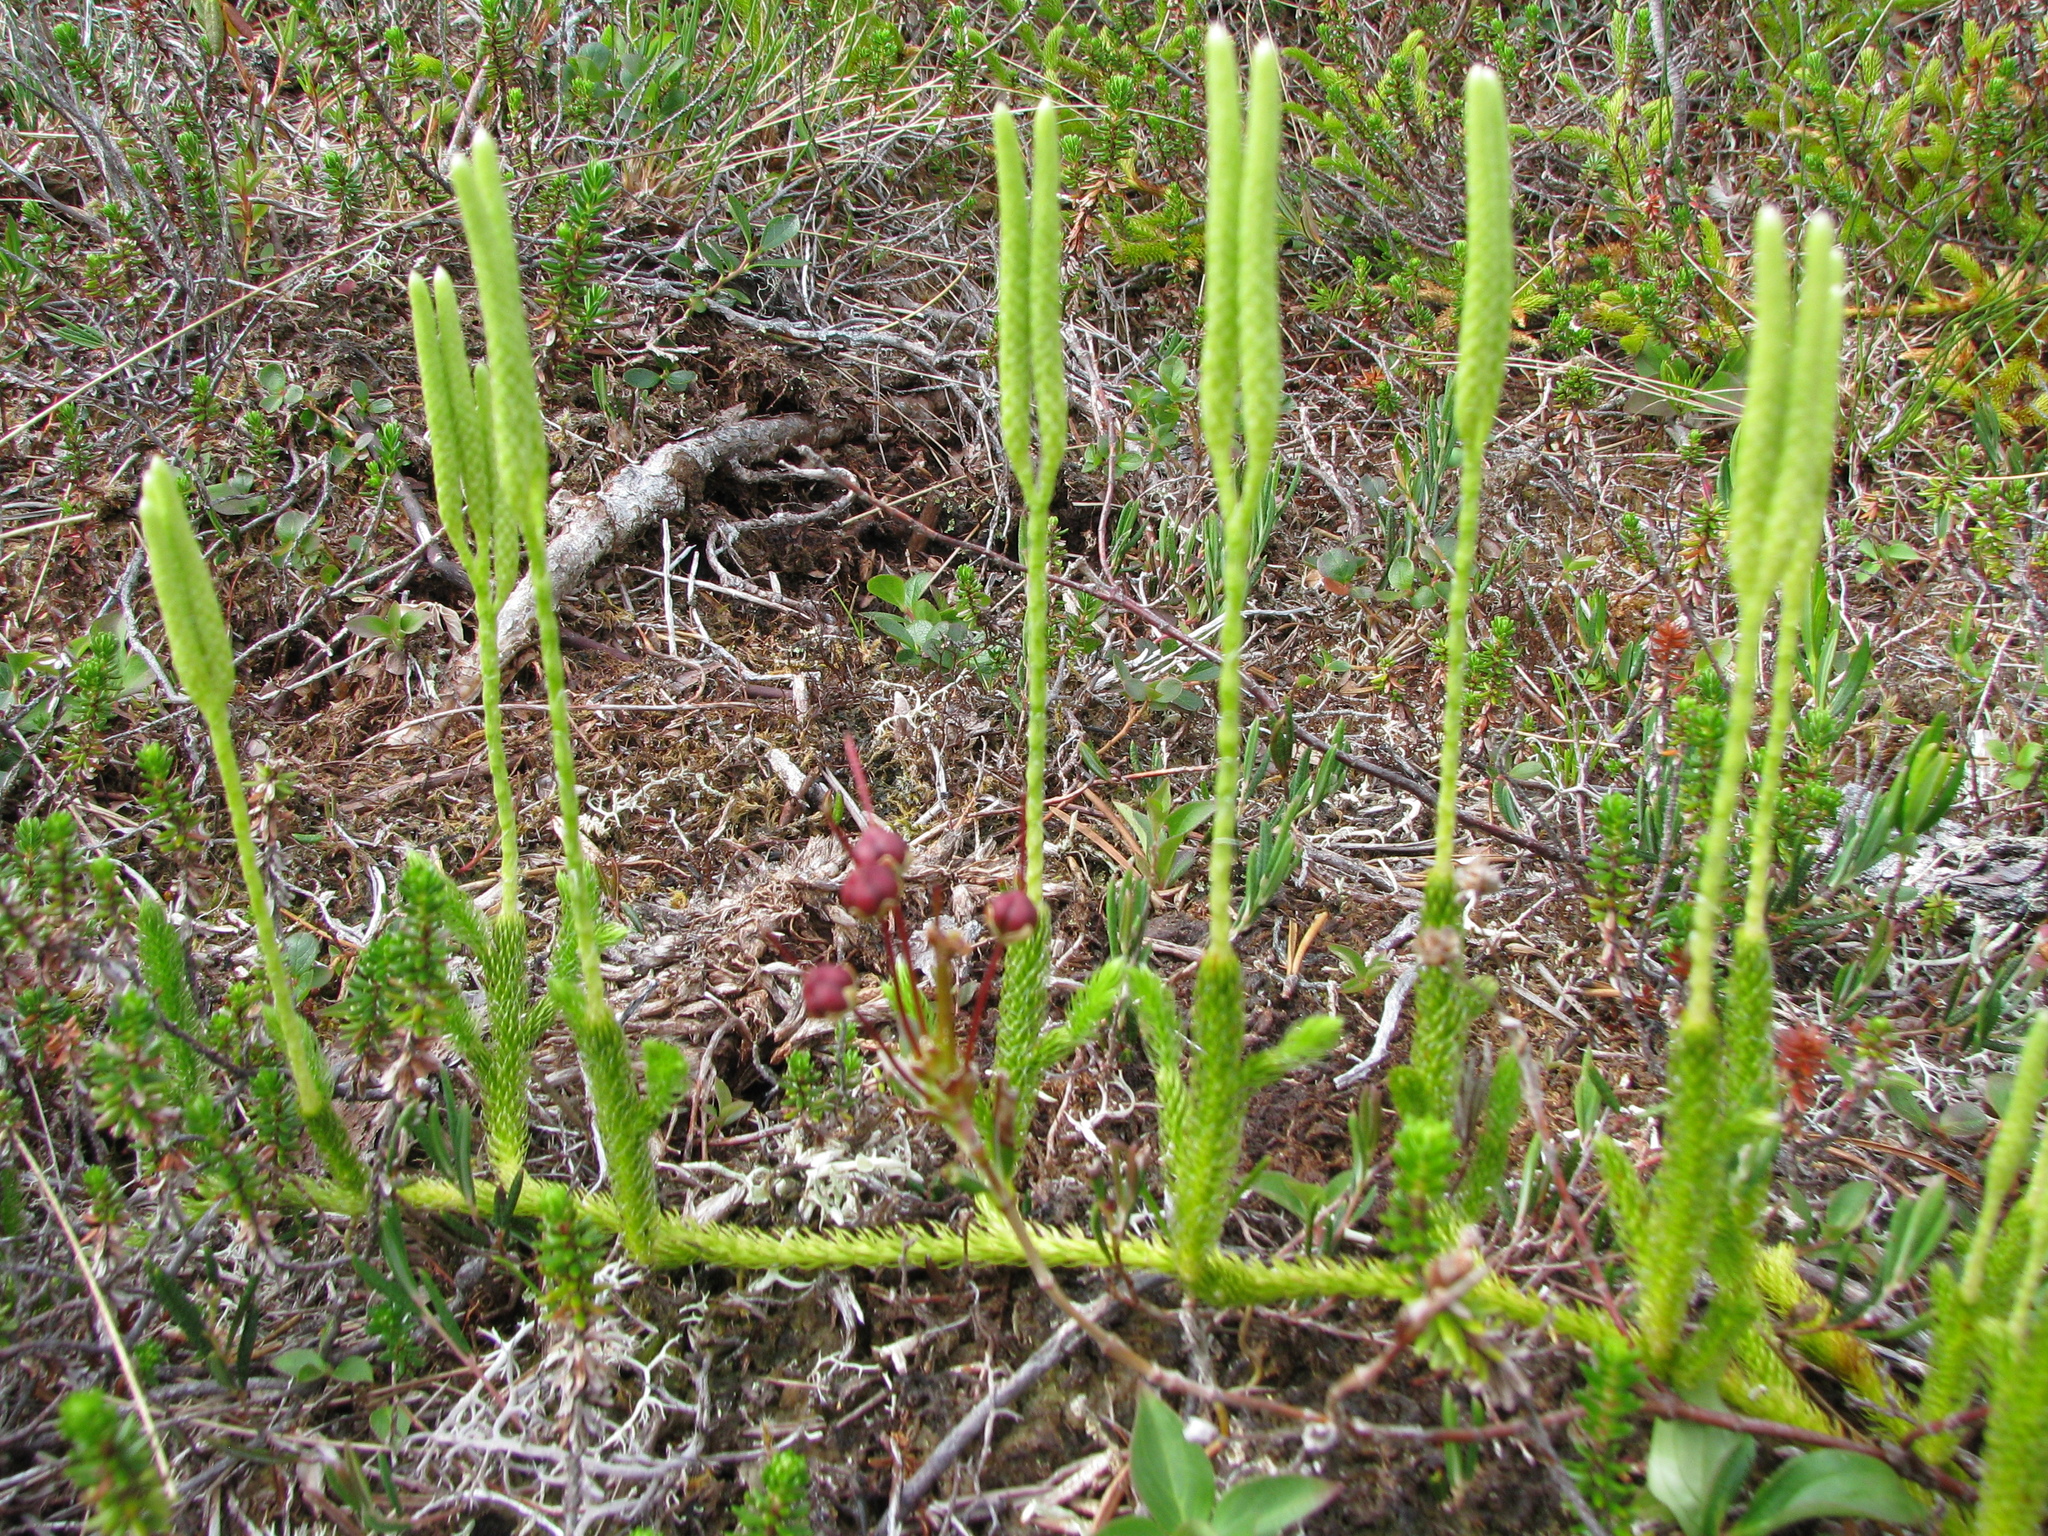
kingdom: Plantae
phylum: Tracheophyta
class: Lycopodiopsida
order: Lycopodiales
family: Lycopodiaceae
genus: Lycopodium
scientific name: Lycopodium clavatum
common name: Stag's-horn clubmoss
